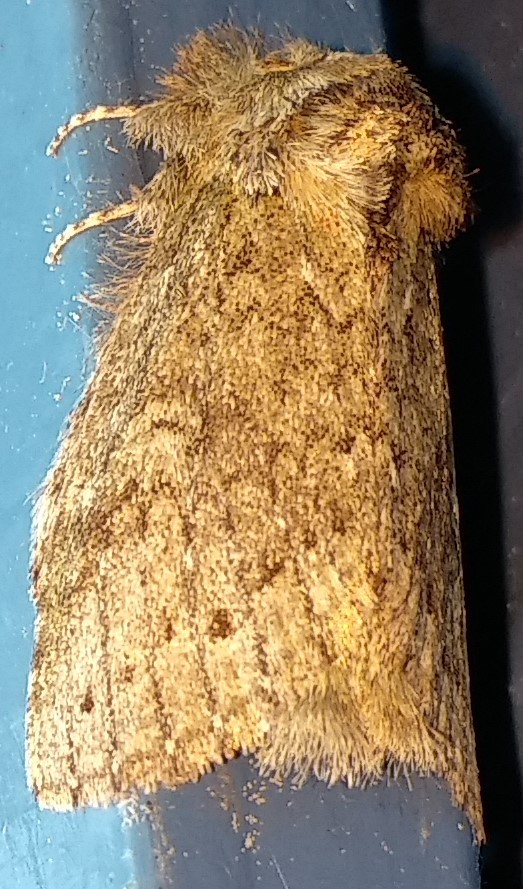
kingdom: Animalia
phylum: Arthropoda
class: Insecta
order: Lepidoptera
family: Notodontidae
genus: Disphragis
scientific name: Disphragis Cecrita guttivitta
